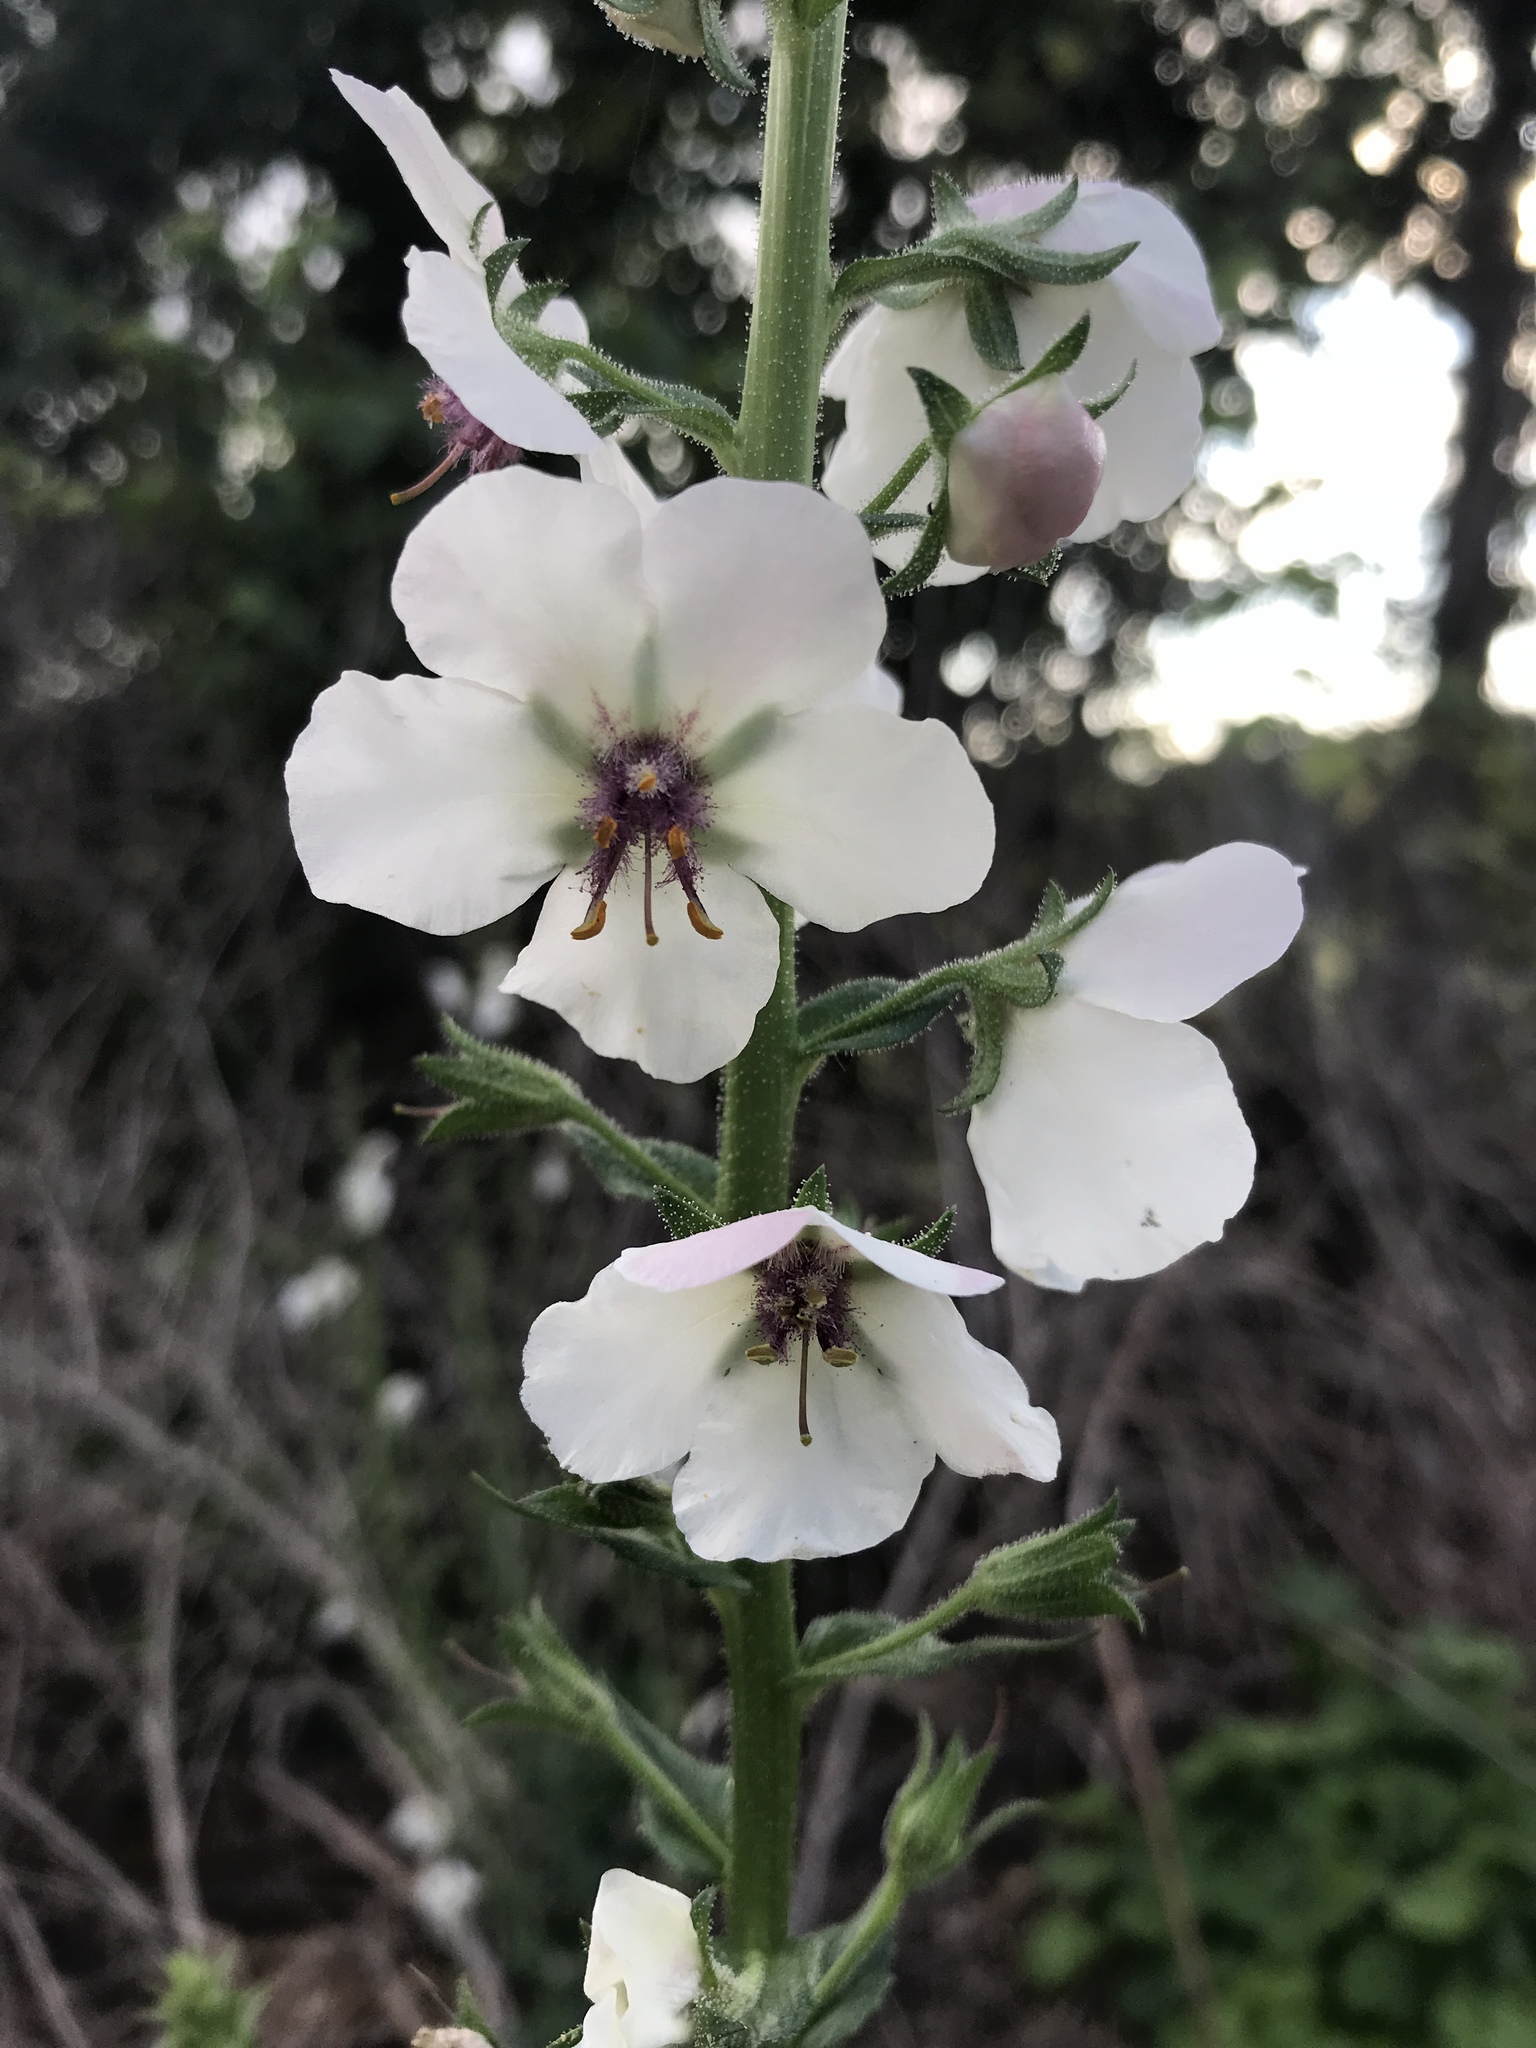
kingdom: Plantae
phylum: Tracheophyta
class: Magnoliopsida
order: Lamiales
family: Scrophulariaceae
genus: Verbascum
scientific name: Verbascum blattaria
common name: Moth mullein
